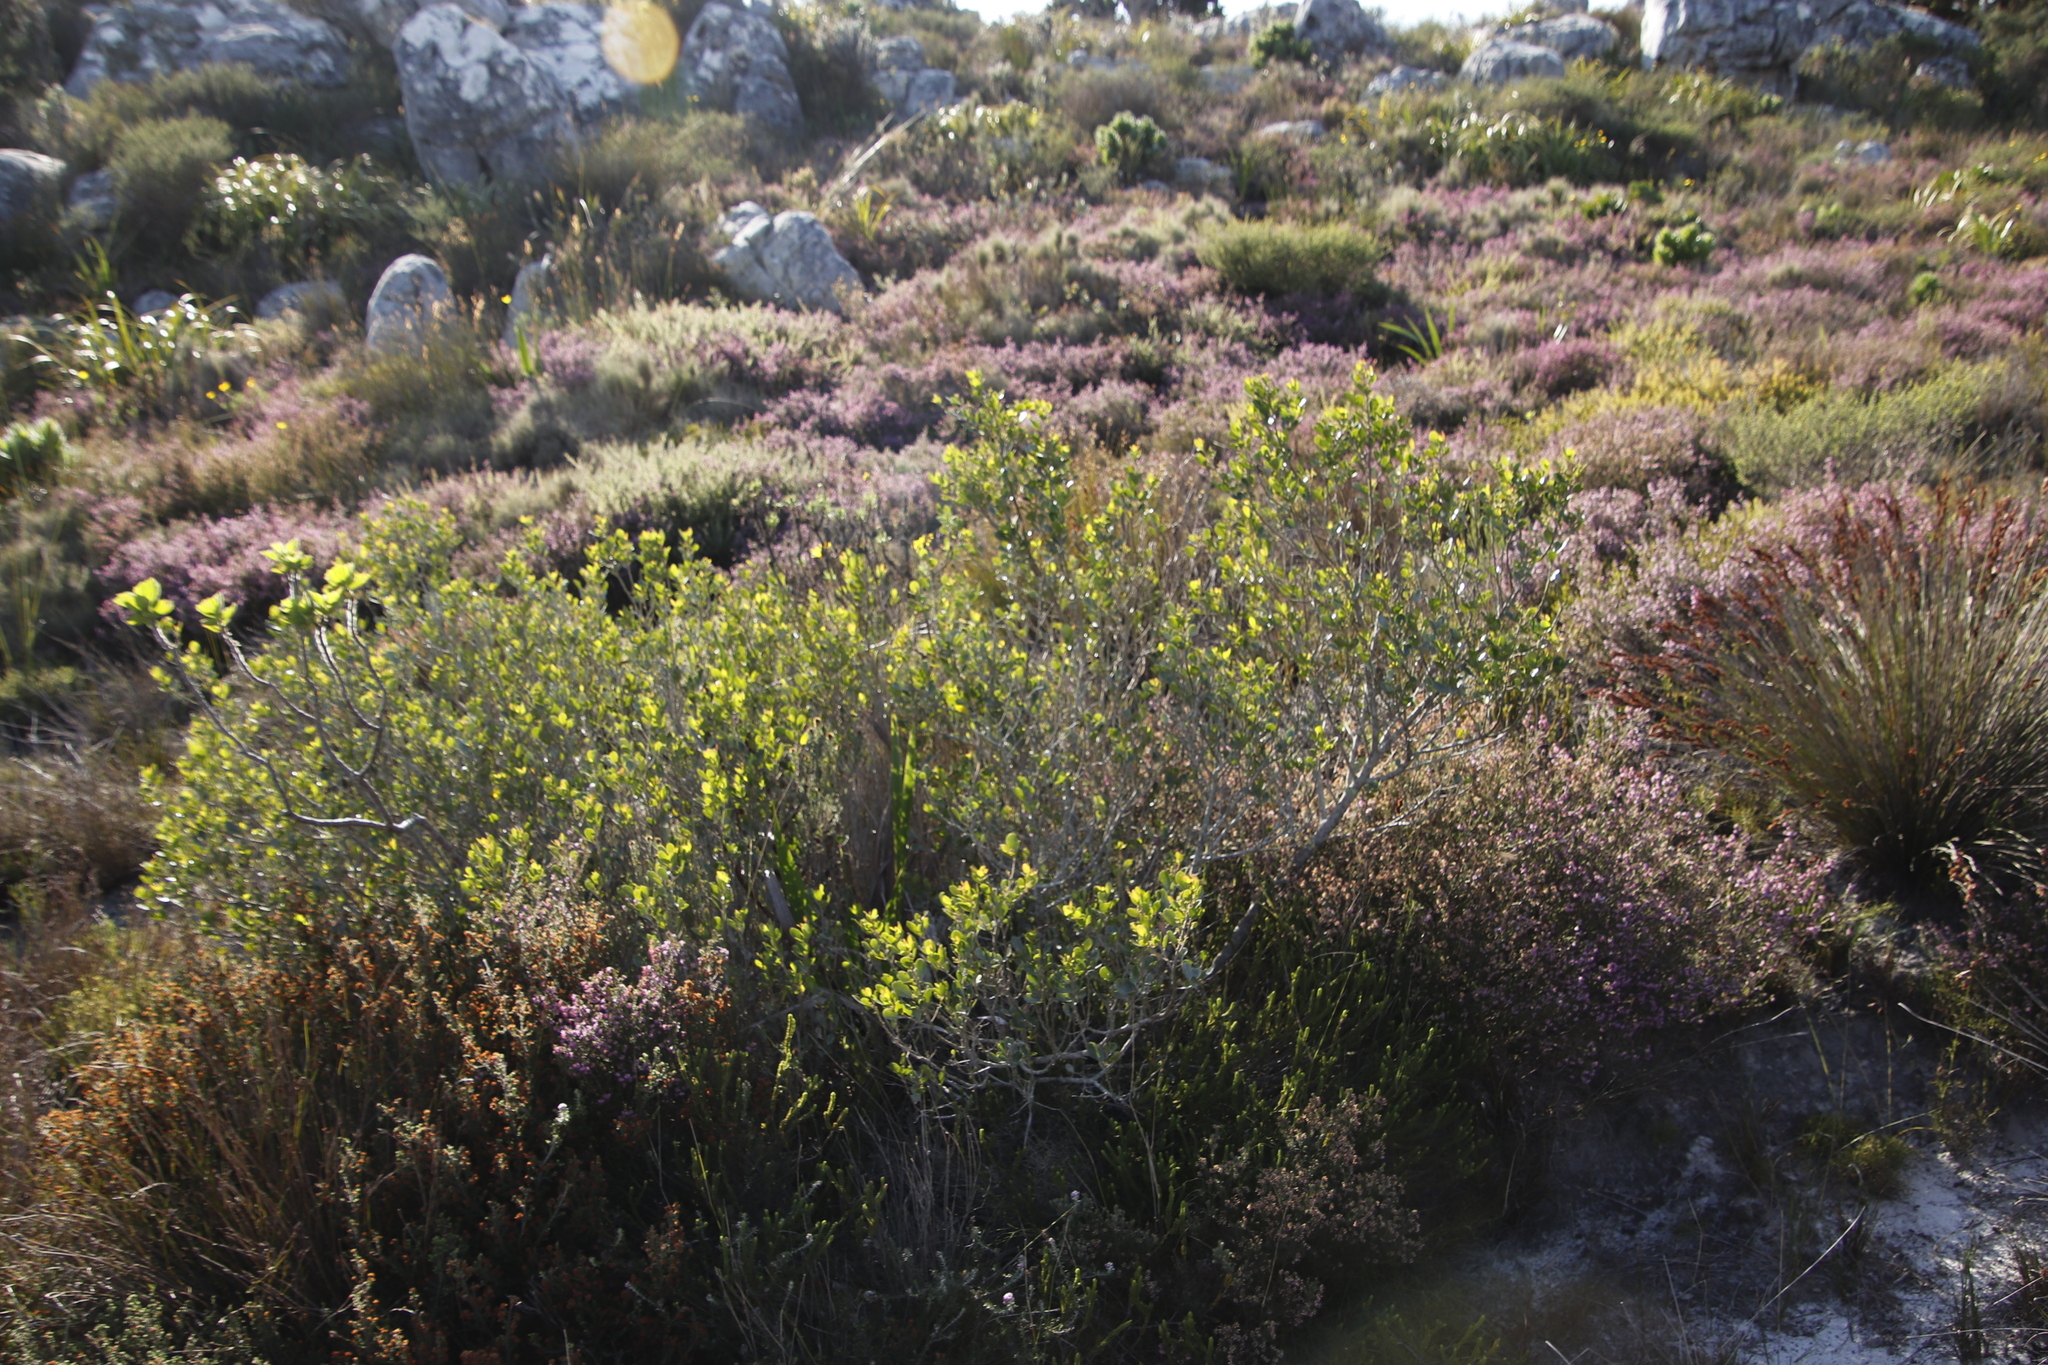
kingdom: Plantae
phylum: Tracheophyta
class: Magnoliopsida
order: Sapindales
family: Anacardiaceae
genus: Searsia
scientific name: Searsia lucida
